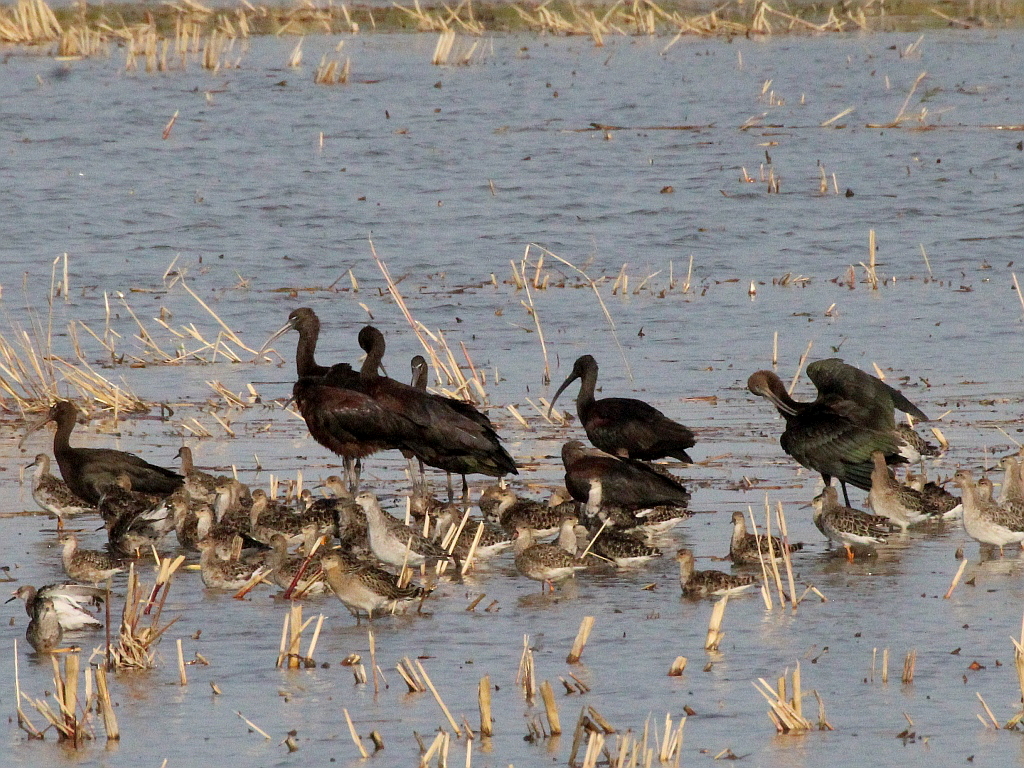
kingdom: Animalia
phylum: Chordata
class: Aves
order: Pelecaniformes
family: Threskiornithidae
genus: Plegadis
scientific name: Plegadis falcinellus
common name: Glossy ibis
